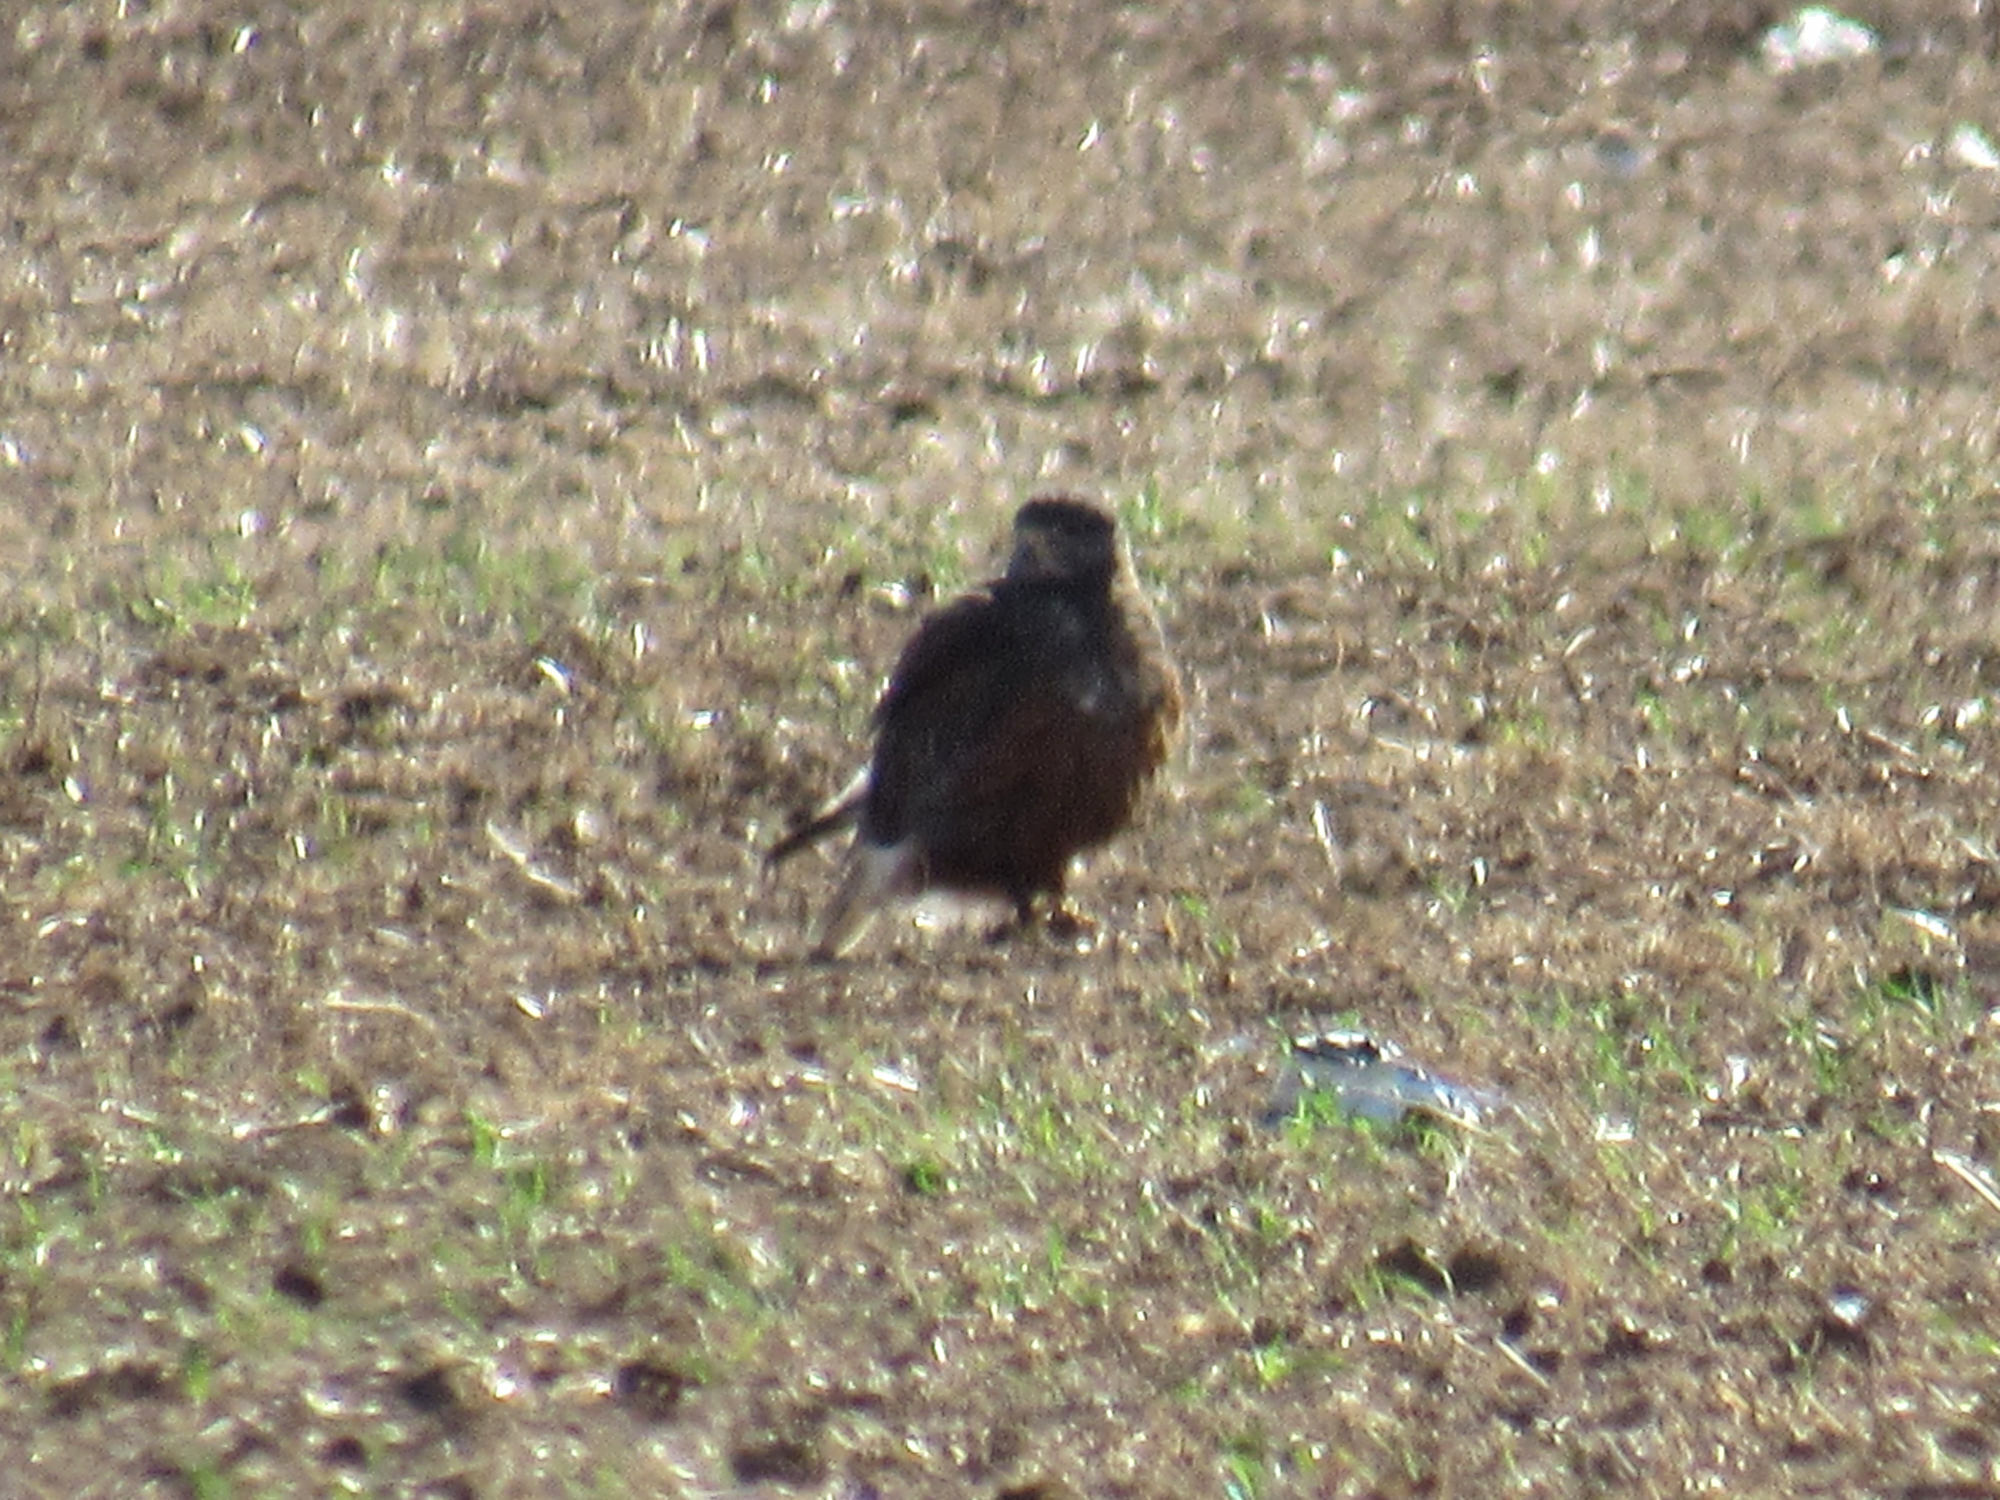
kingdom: Animalia
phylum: Chordata
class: Aves
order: Accipitriformes
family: Accipitridae
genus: Buteo
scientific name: Buteo regalis
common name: Ferruginous hawk
